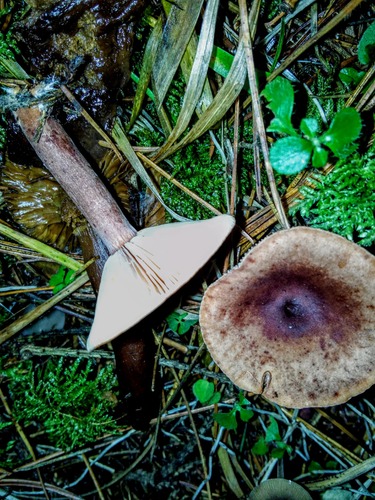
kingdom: Fungi
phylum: Basidiomycota
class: Agaricomycetes
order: Russulales
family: Russulaceae
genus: Lactarius
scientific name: Lactarius
